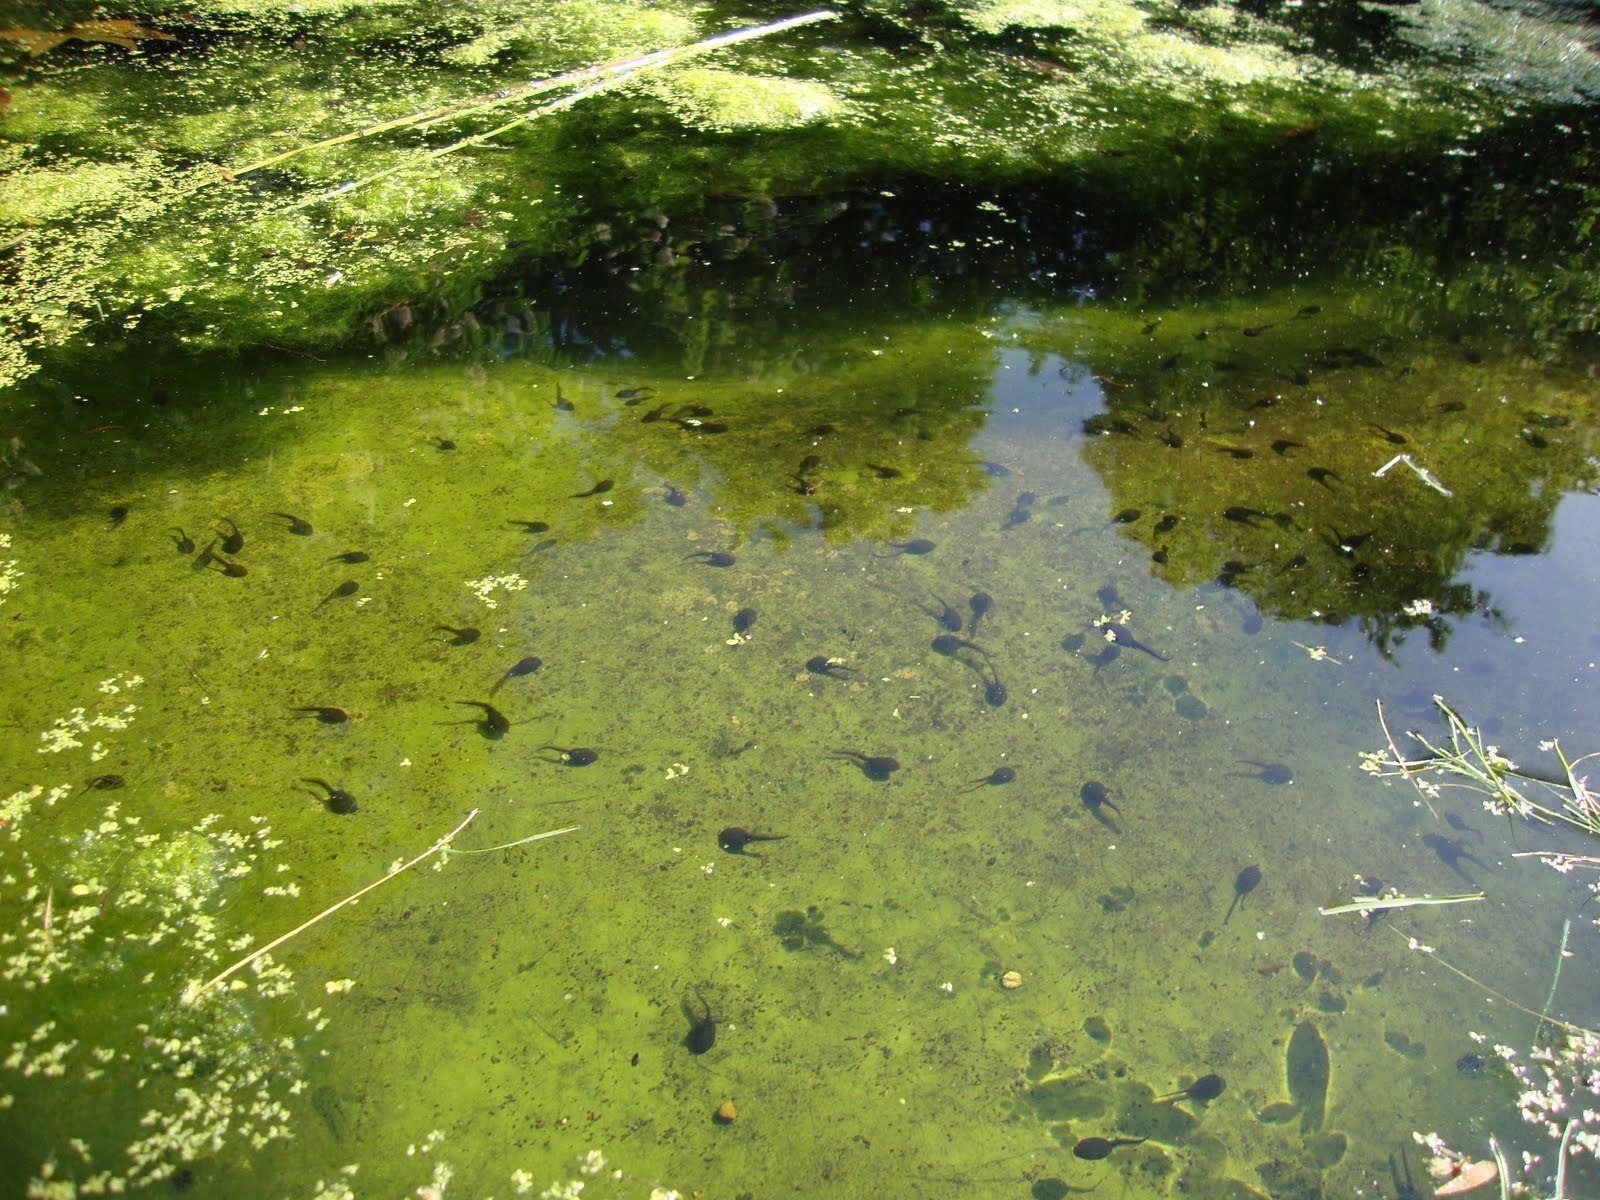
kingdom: Animalia
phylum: Chordata
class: Amphibia
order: Anura
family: Ranidae
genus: Rana
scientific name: Rana temporaria
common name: Common frog
